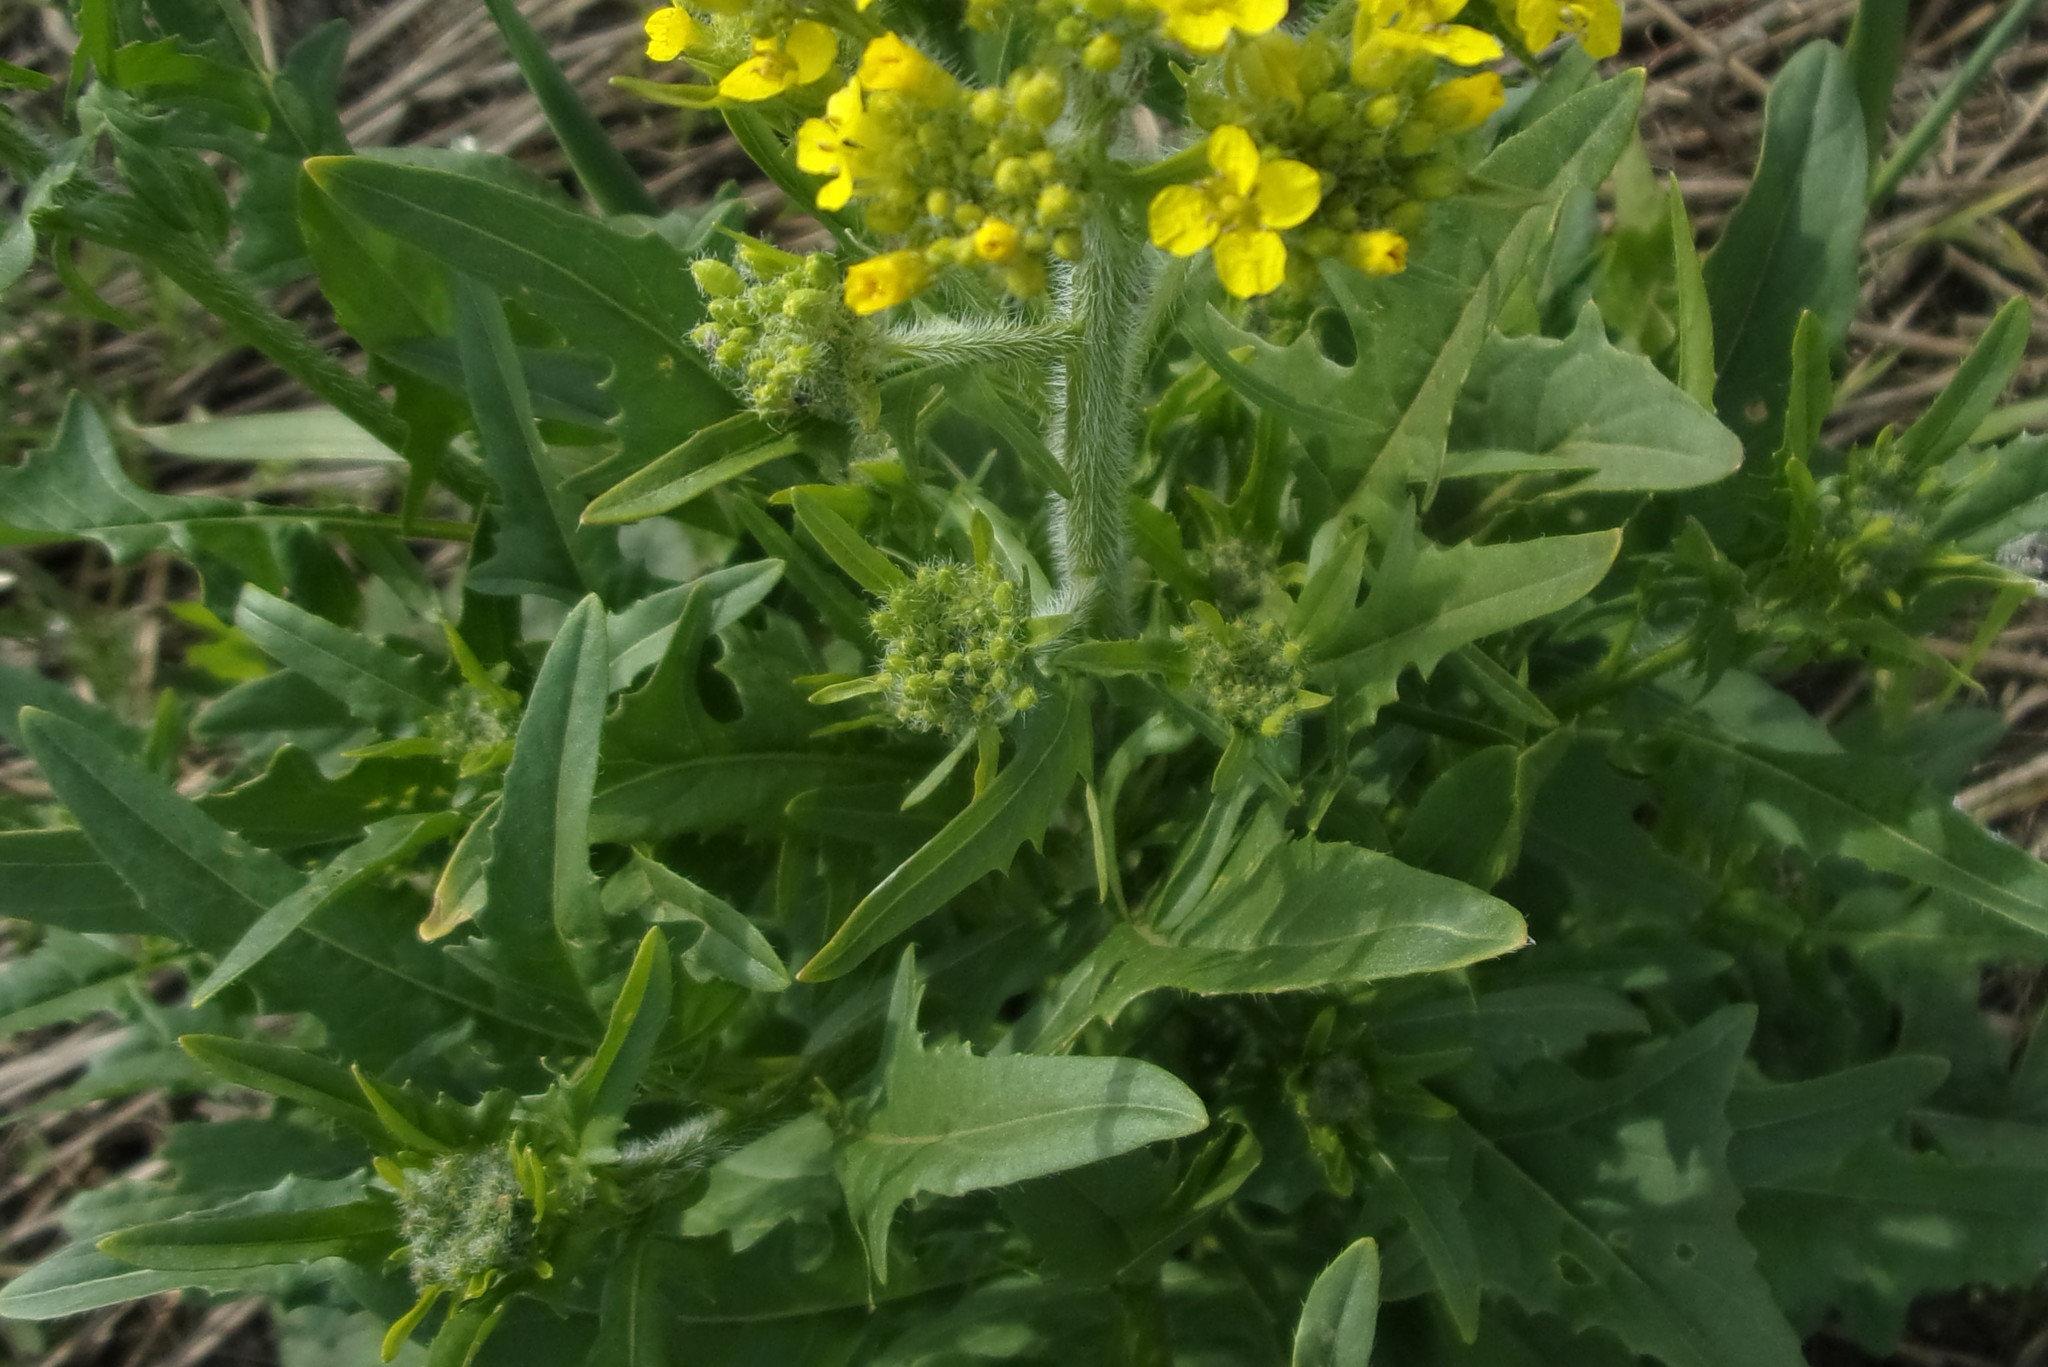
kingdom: Plantae
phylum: Tracheophyta
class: Magnoliopsida
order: Brassicales
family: Brassicaceae
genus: Sisymbrium
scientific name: Sisymbrium loeselii
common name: False london-rocket
